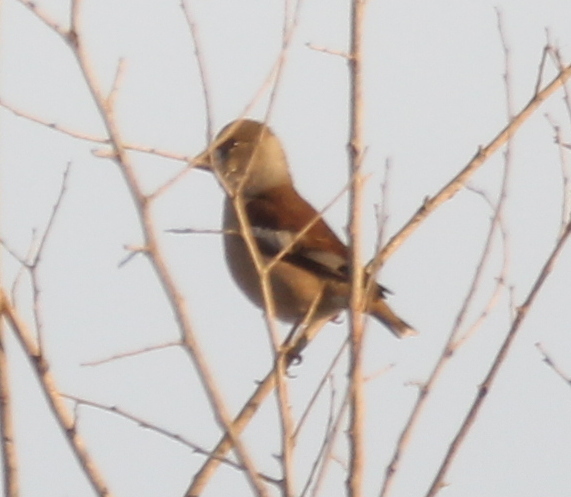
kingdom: Animalia
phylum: Chordata
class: Aves
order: Passeriformes
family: Fringillidae
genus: Coccothraustes
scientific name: Coccothraustes coccothraustes
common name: Hawfinch
